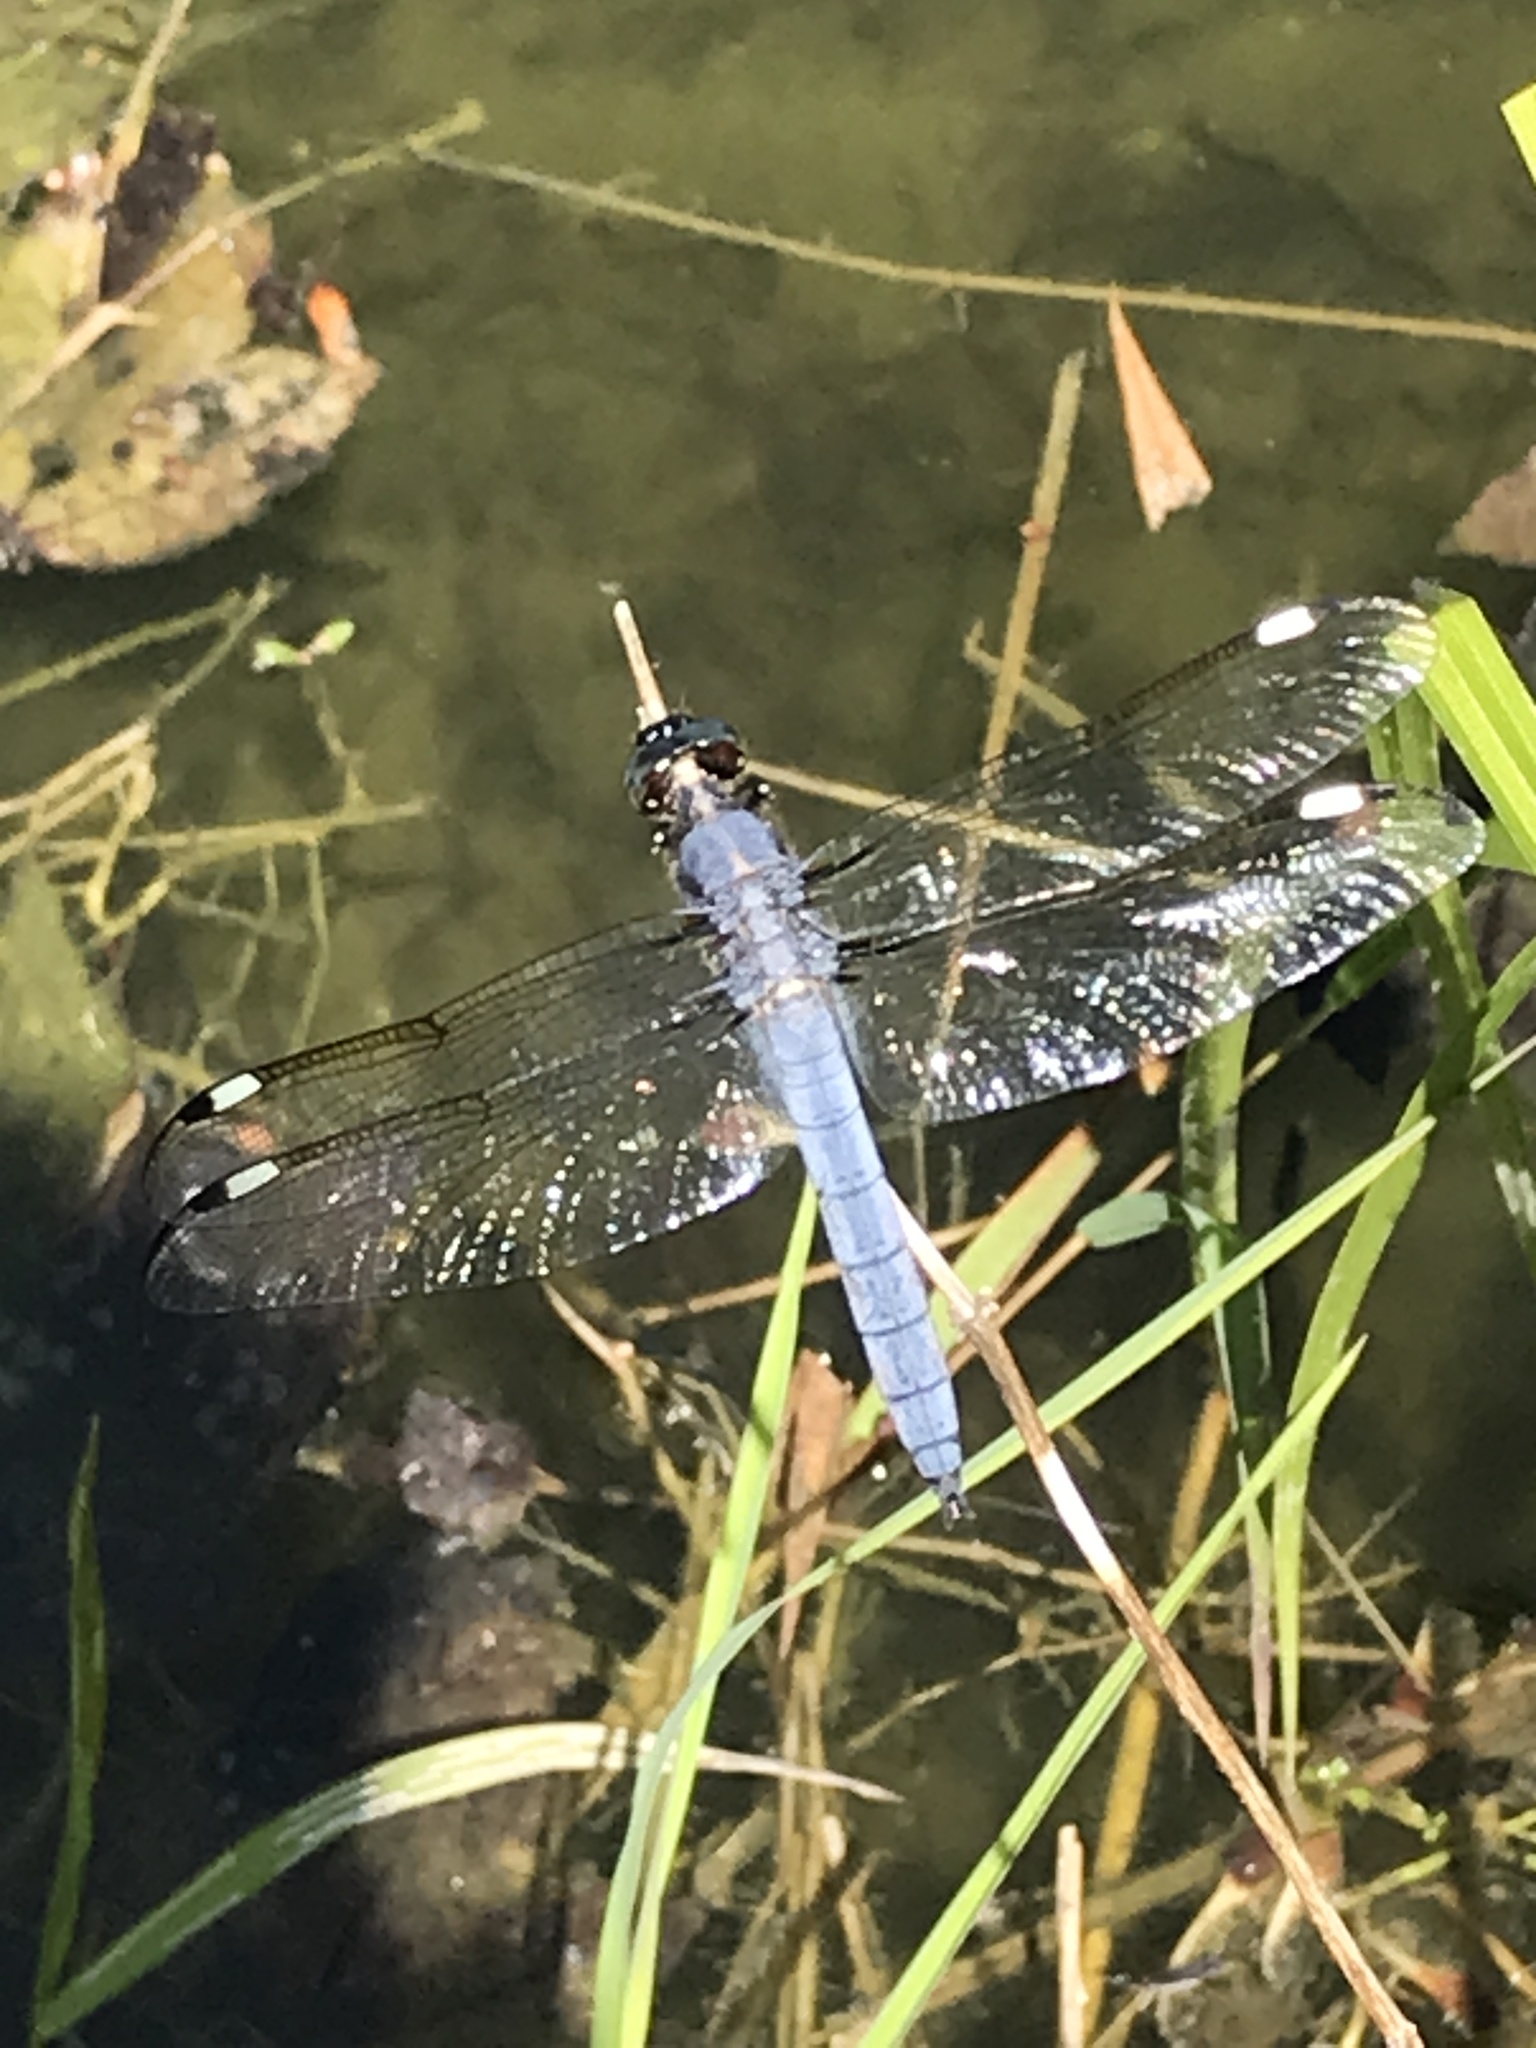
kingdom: Animalia
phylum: Arthropoda
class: Insecta
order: Odonata
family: Libellulidae
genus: Libellula
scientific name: Libellula cyanea
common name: Spangled skimmer
